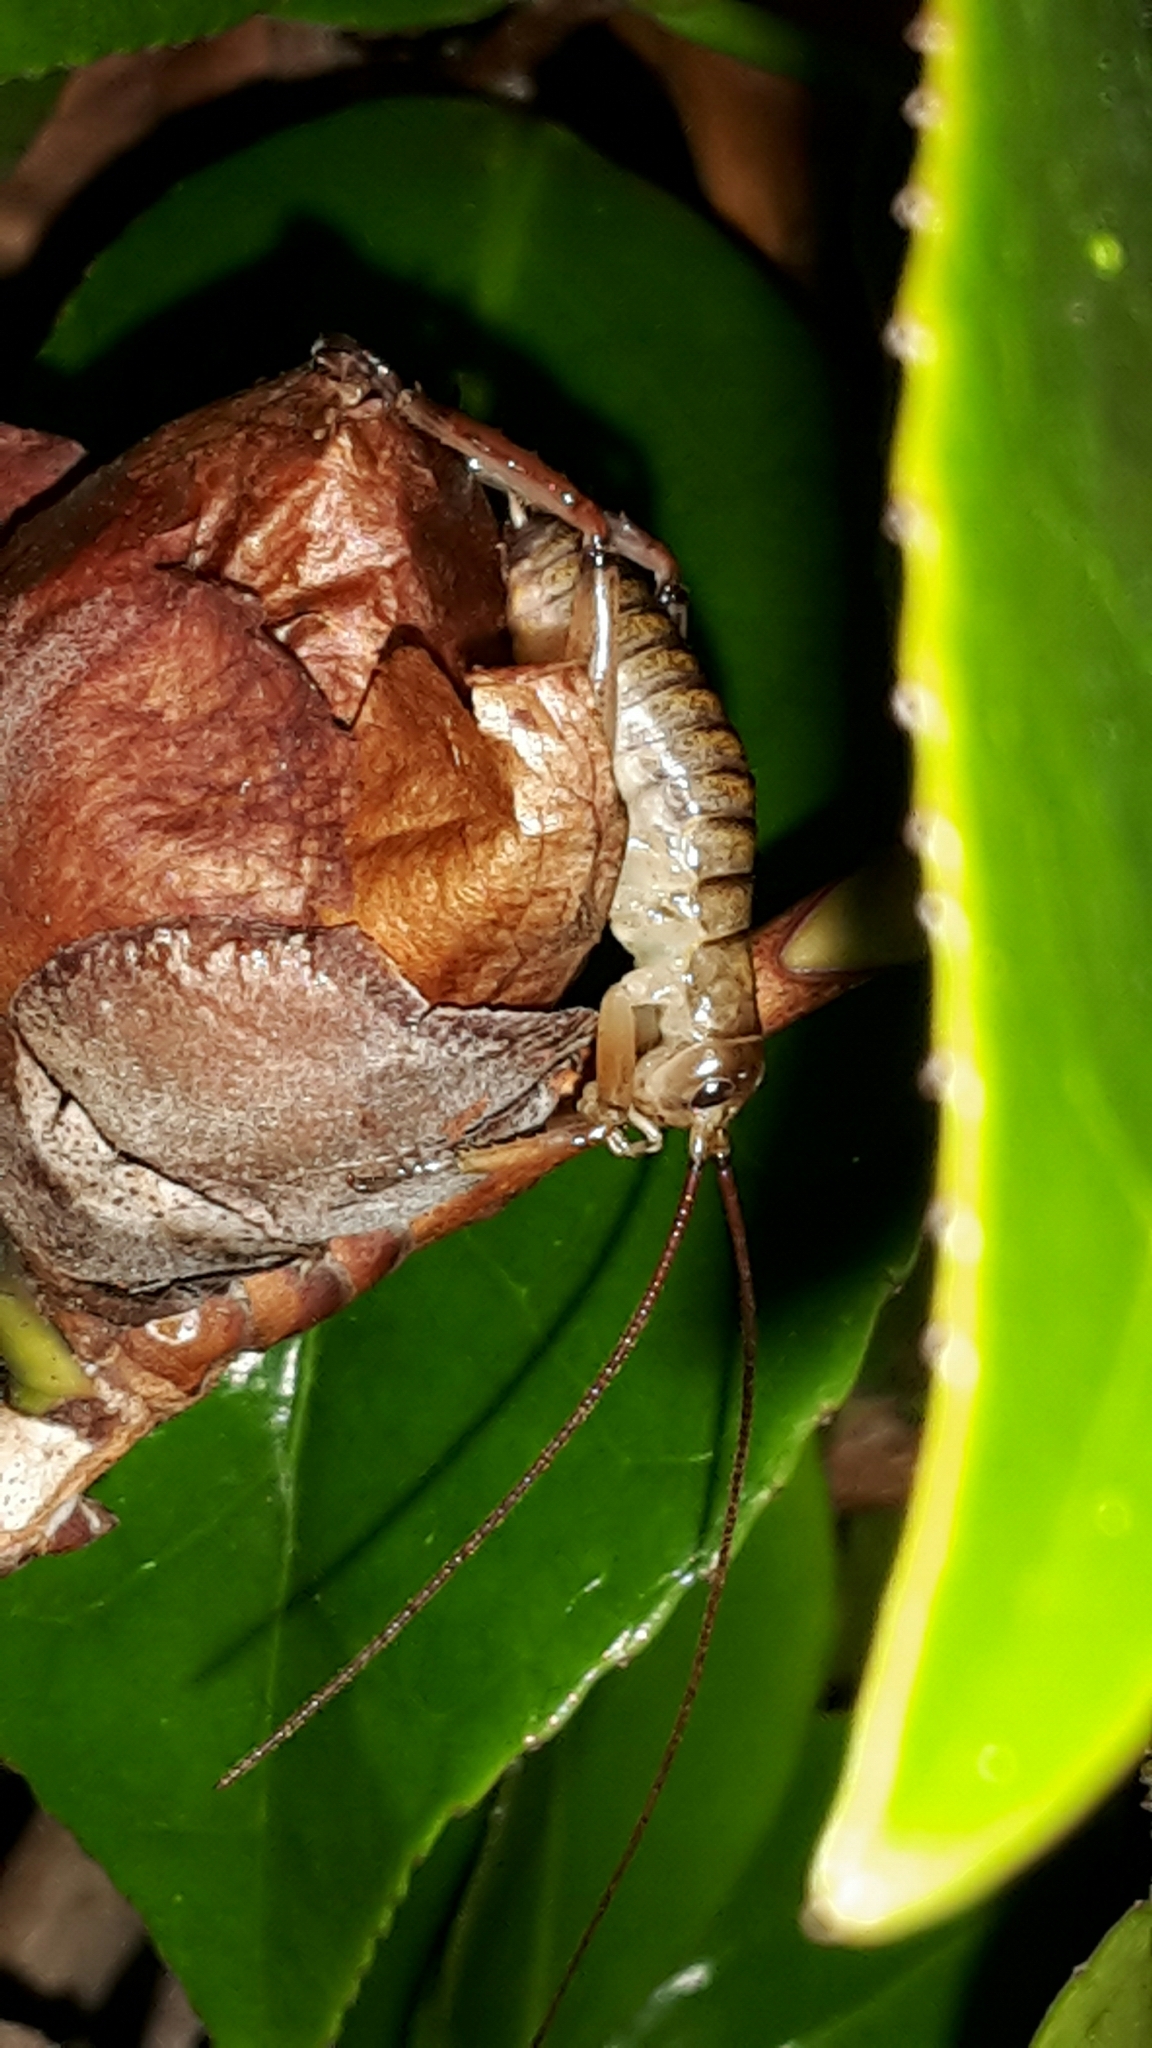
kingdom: Animalia
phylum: Arthropoda
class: Insecta
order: Orthoptera
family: Anostostomatidae
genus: Hemideina
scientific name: Hemideina thoracica
